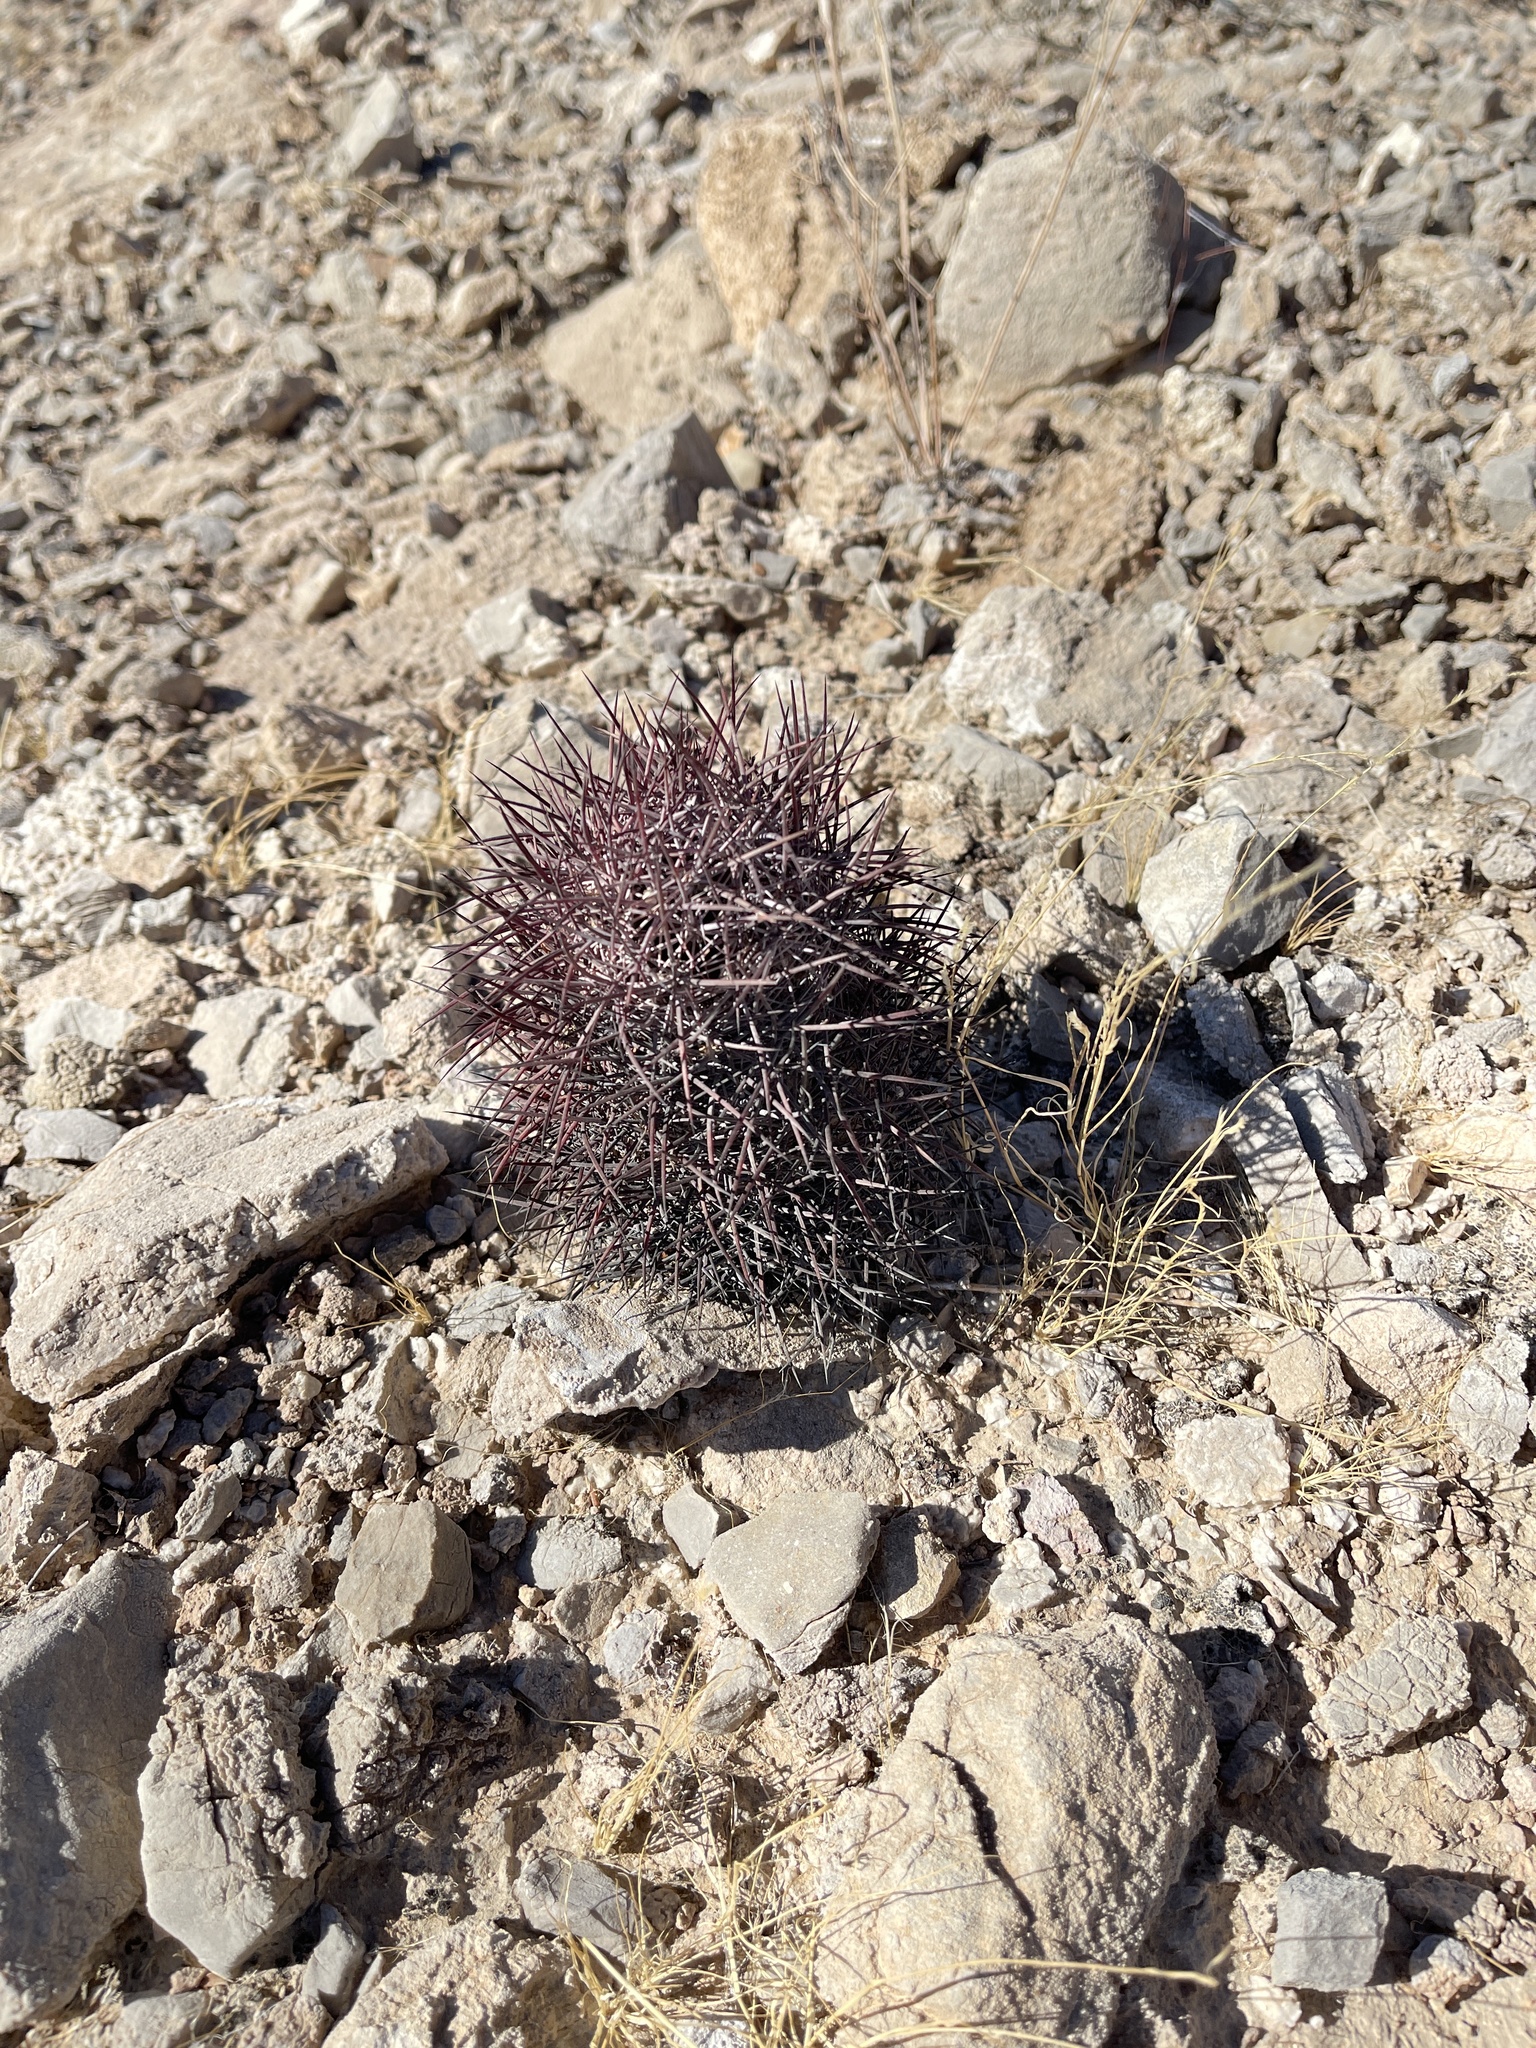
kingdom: Plantae
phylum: Tracheophyta
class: Magnoliopsida
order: Caryophyllales
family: Cactaceae
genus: Sclerocactus
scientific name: Sclerocactus johnsonii
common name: Eight-spine fishhook cactus
